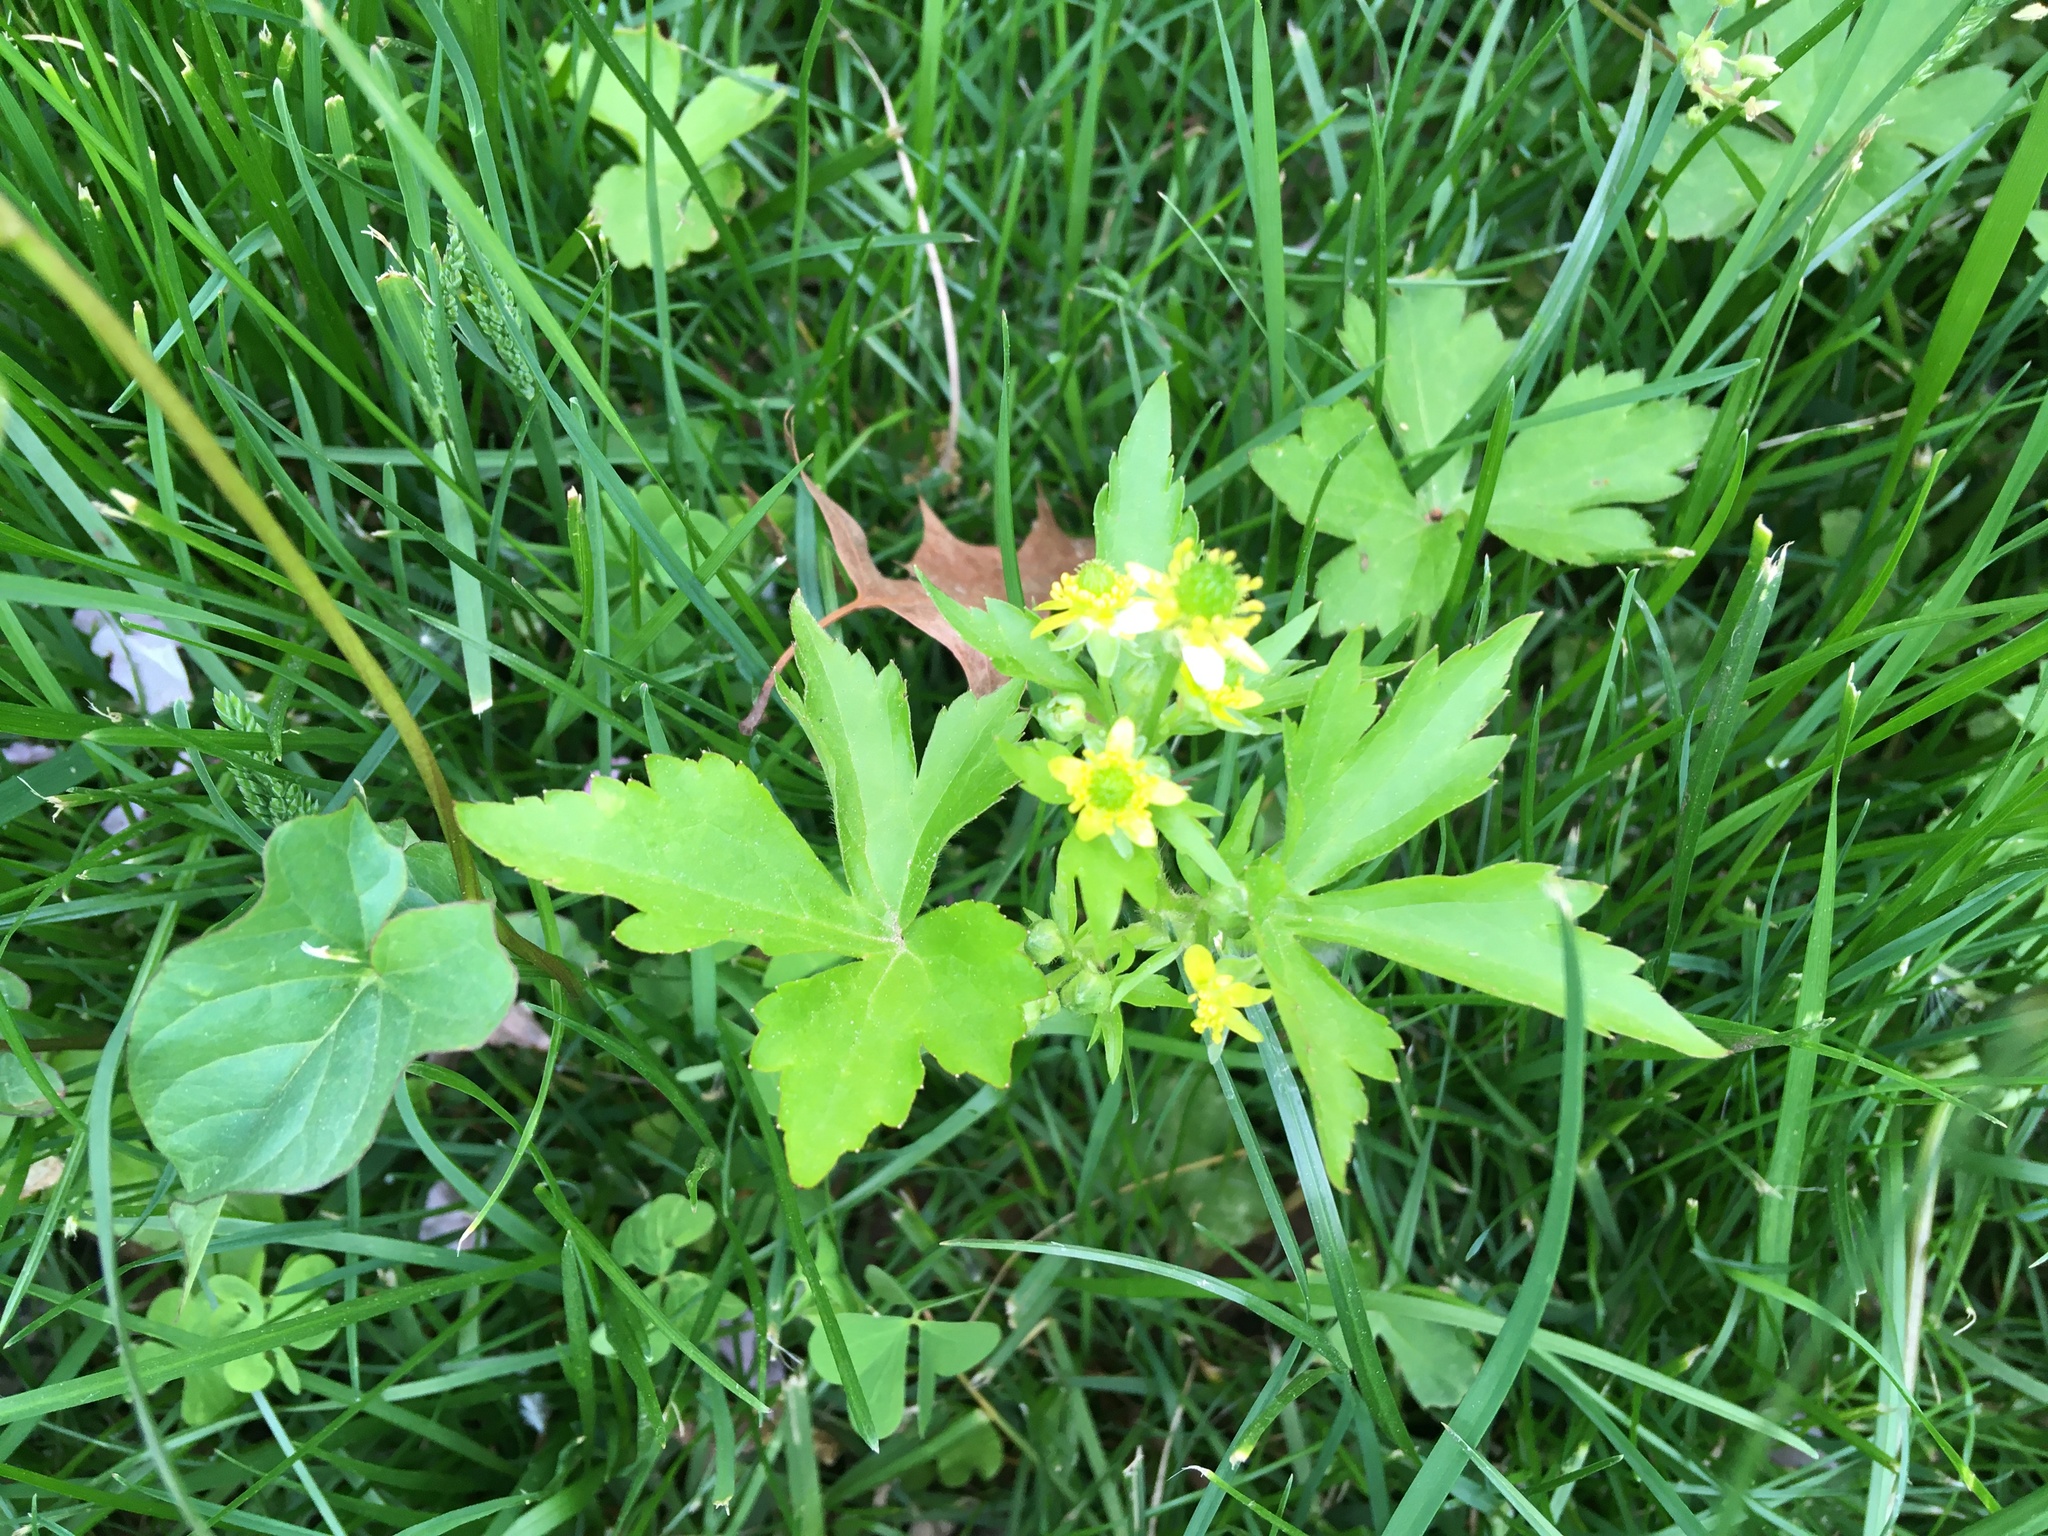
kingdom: Plantae
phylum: Tracheophyta
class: Magnoliopsida
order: Ranunculales
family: Ranunculaceae
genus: Ranunculus
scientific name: Ranunculus recurvatus
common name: Blisterwort
